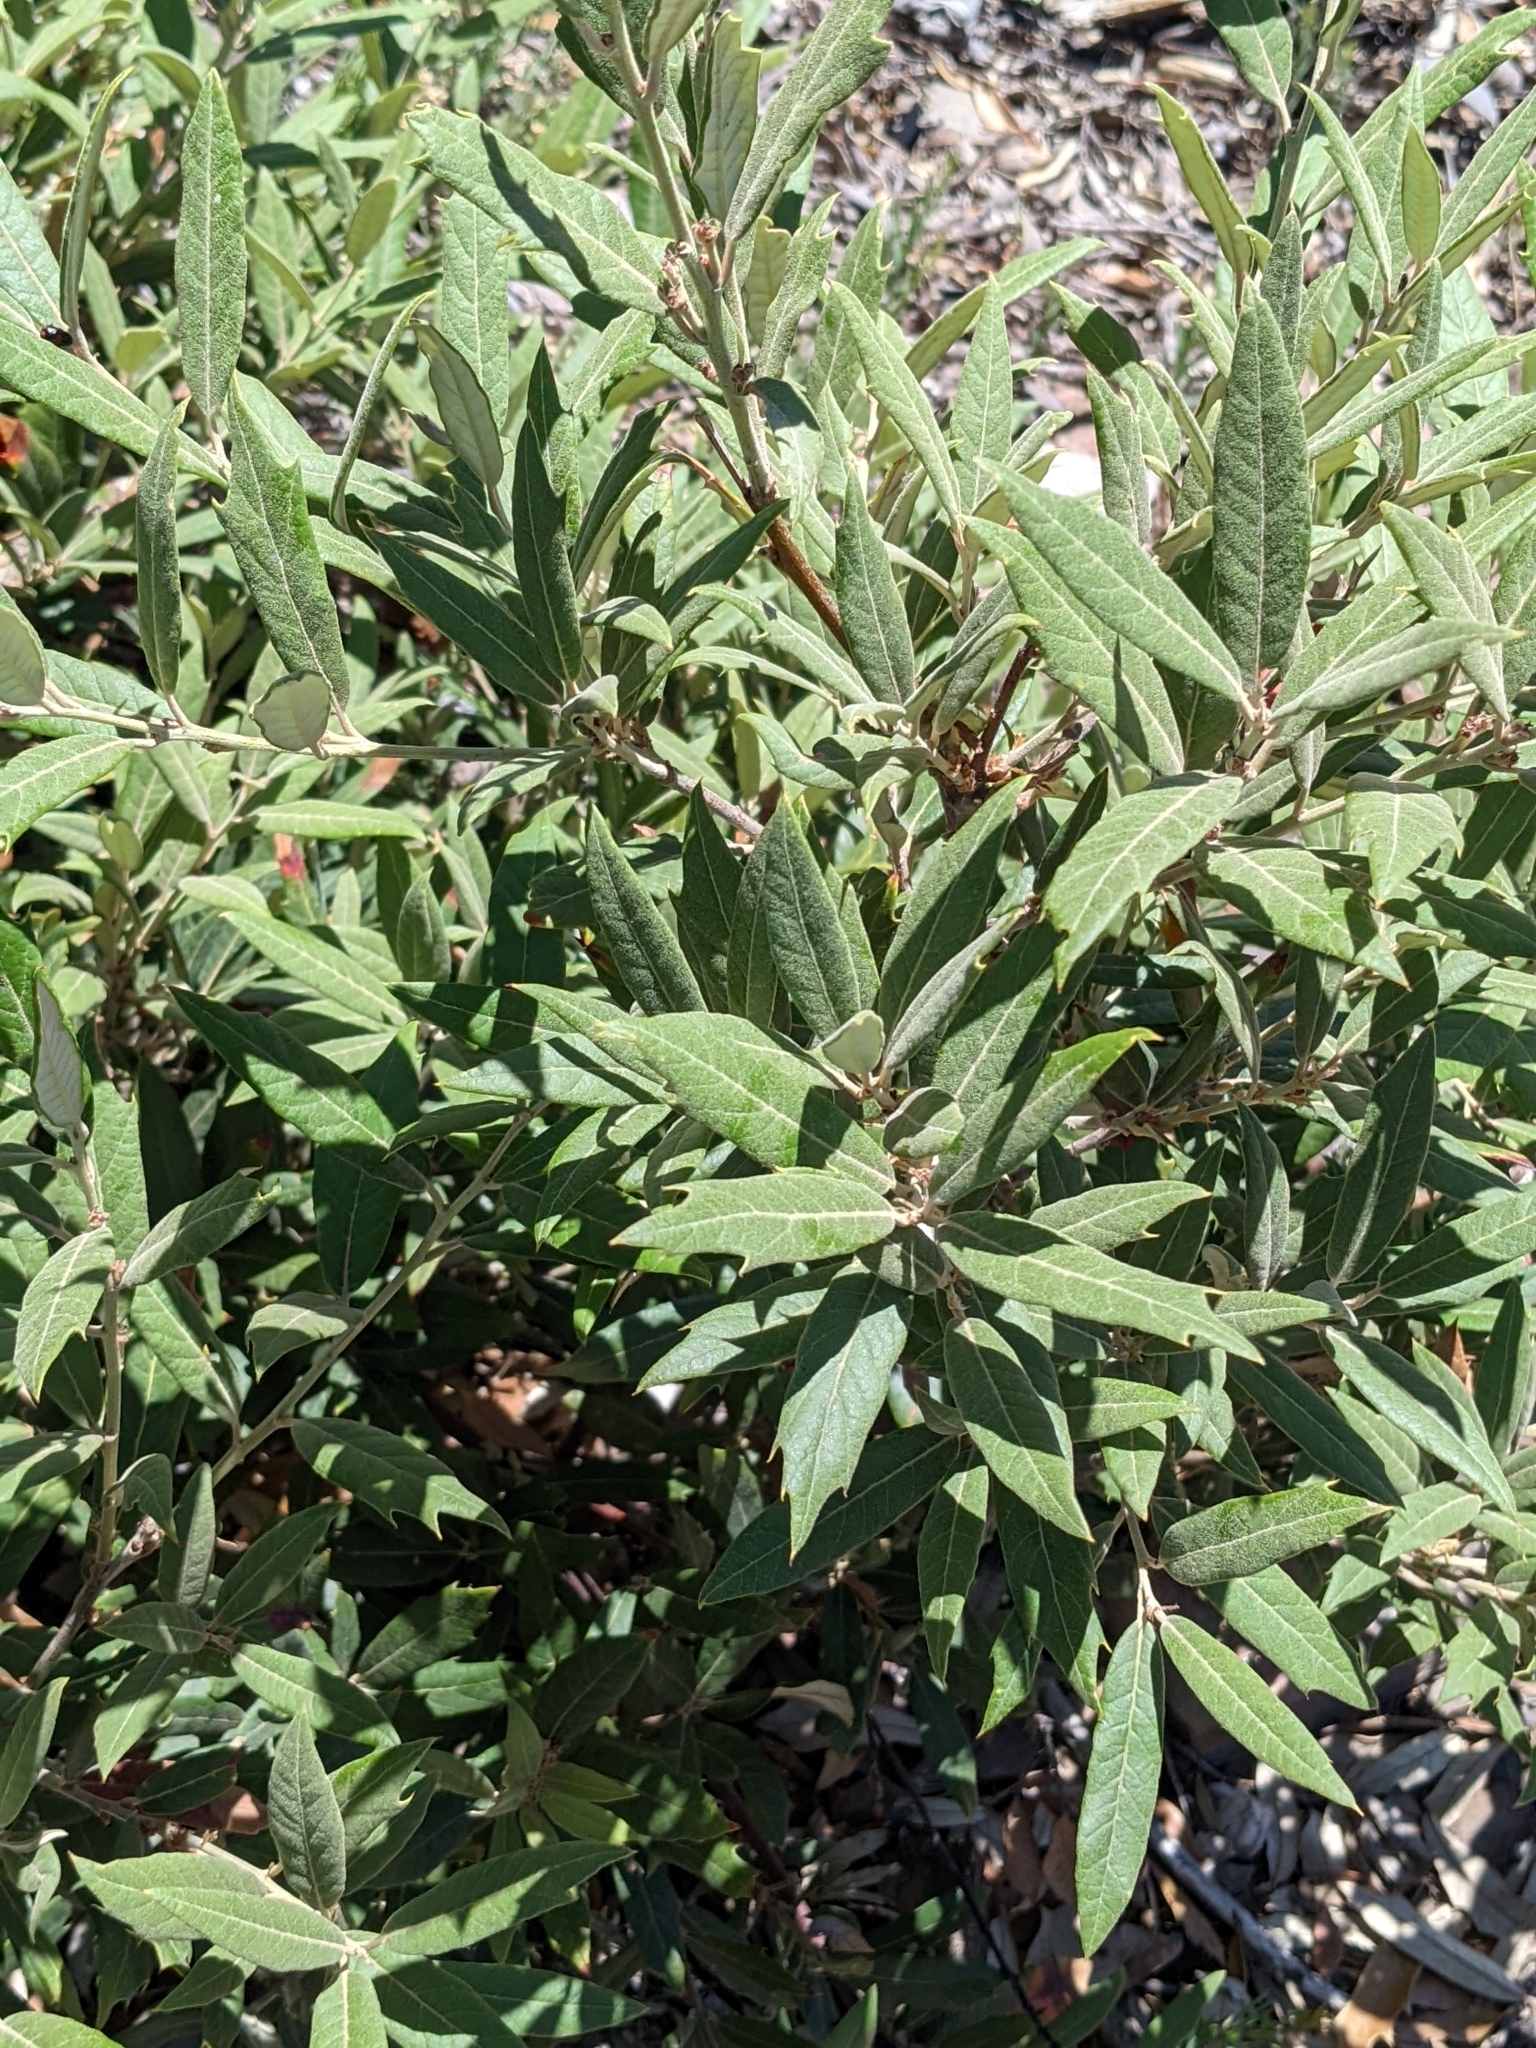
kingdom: Plantae
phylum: Tracheophyta
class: Magnoliopsida
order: Fagales
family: Fagaceae
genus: Quercus
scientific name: Quercus hypoleucoides
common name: Silverleaf oak
